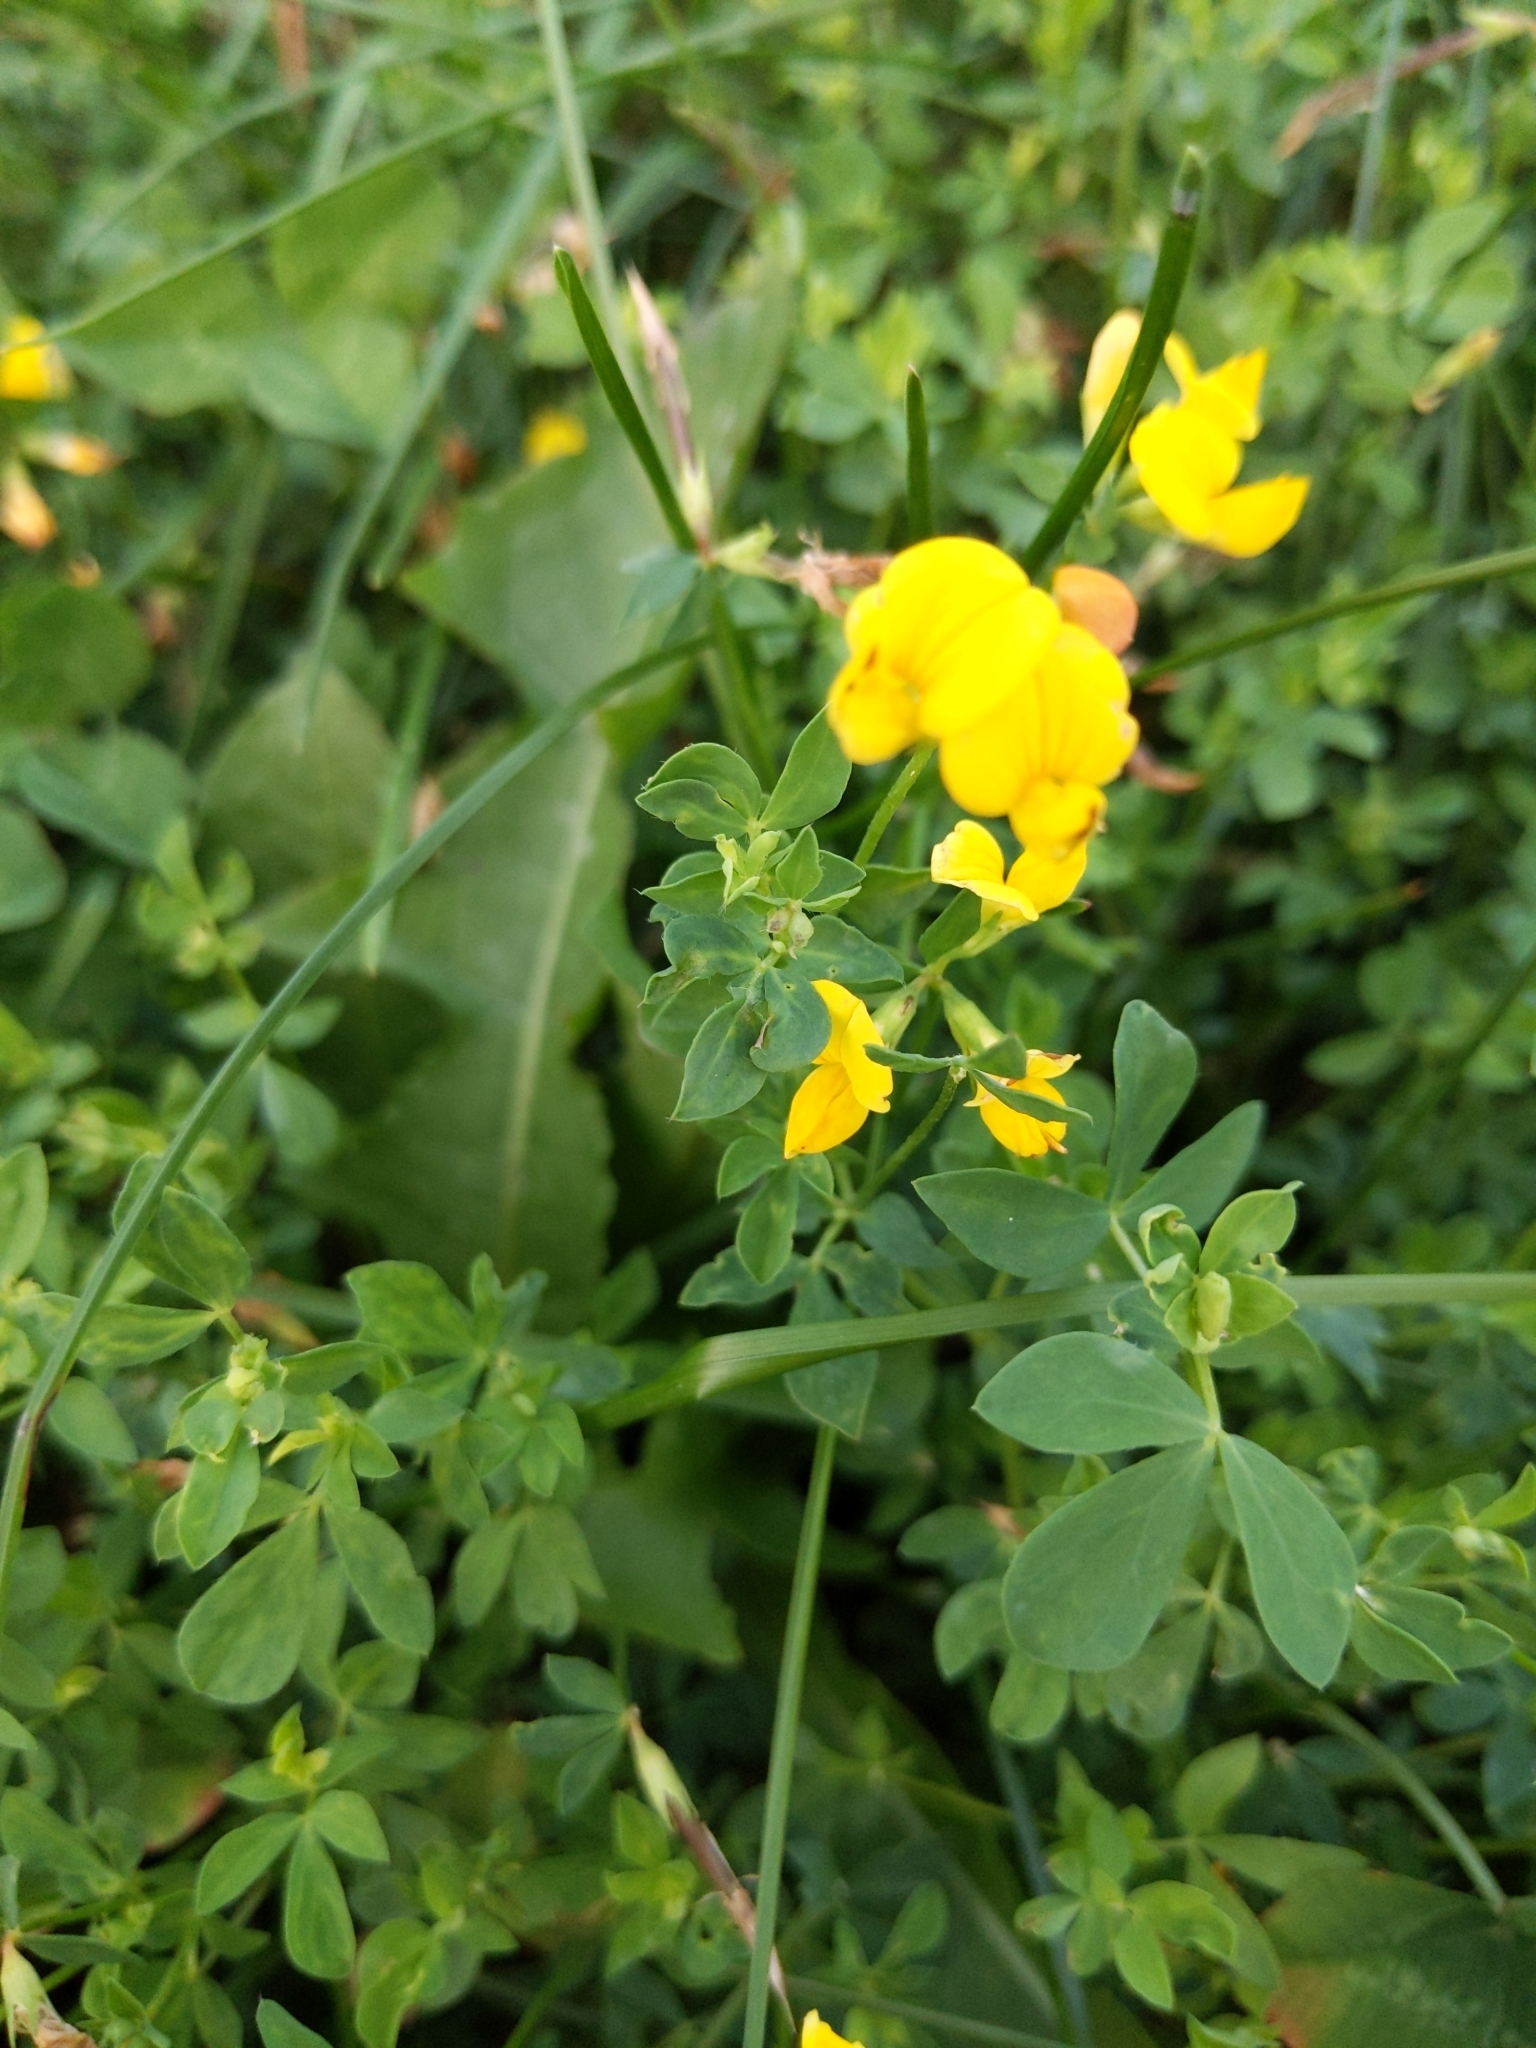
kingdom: Plantae
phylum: Tracheophyta
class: Magnoliopsida
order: Fabales
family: Fabaceae
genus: Lotus
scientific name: Lotus corniculatus
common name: Common bird's-foot-trefoil
